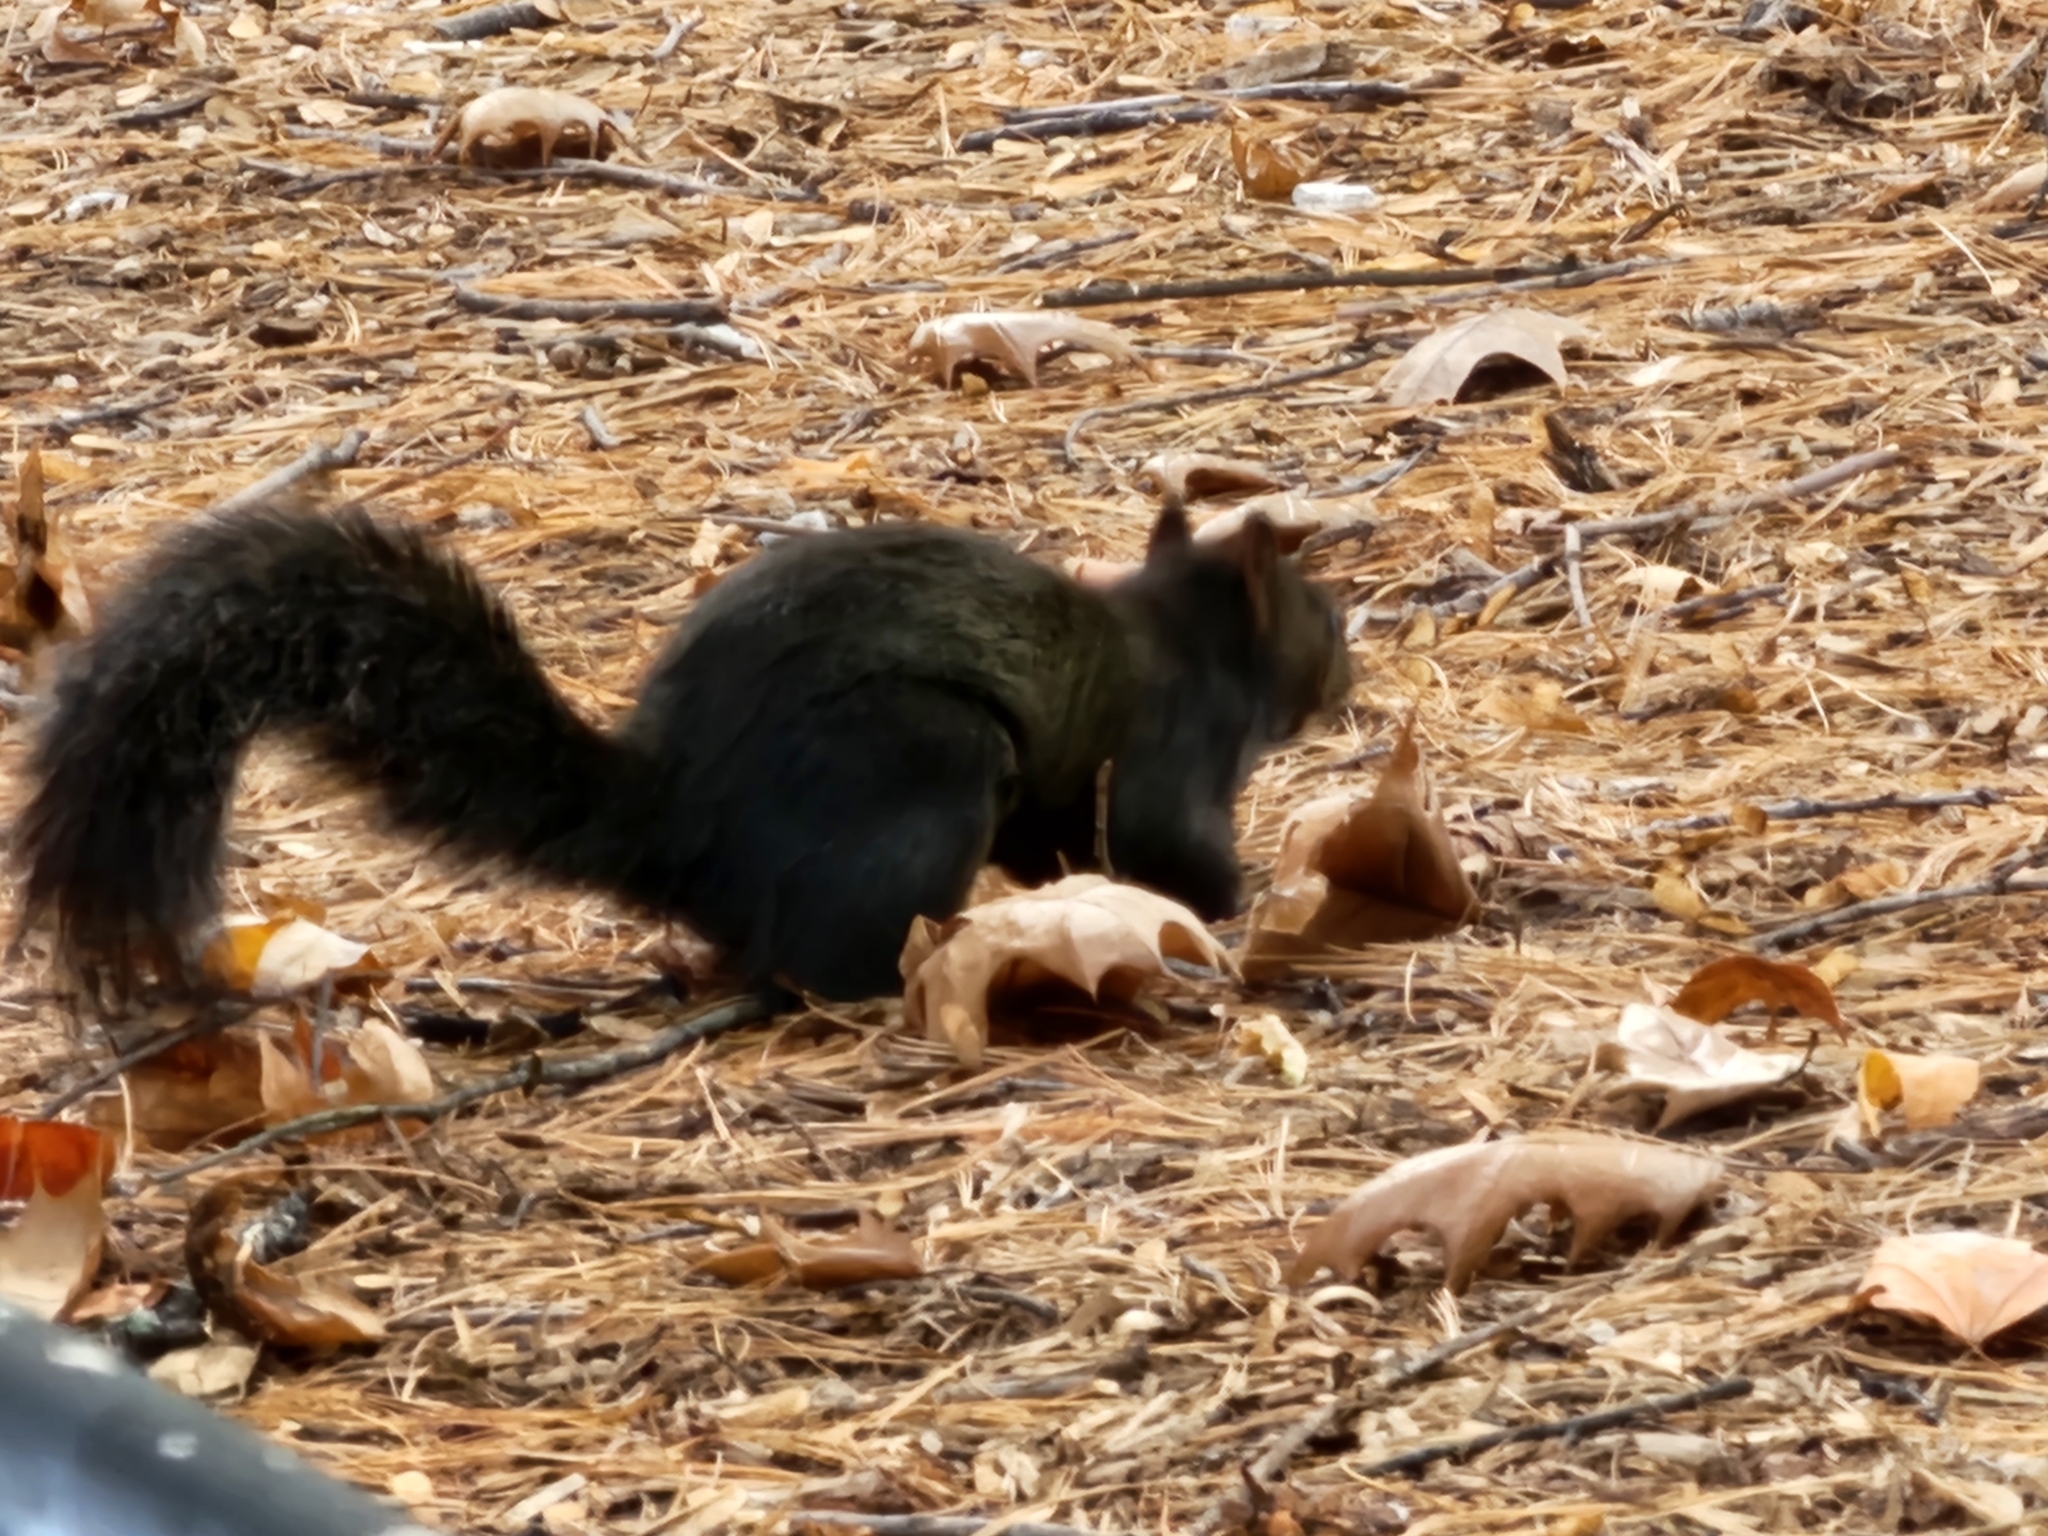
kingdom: Animalia
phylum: Chordata
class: Mammalia
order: Rodentia
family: Sciuridae
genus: Sciurus
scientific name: Sciurus carolinensis
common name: Eastern gray squirrel
